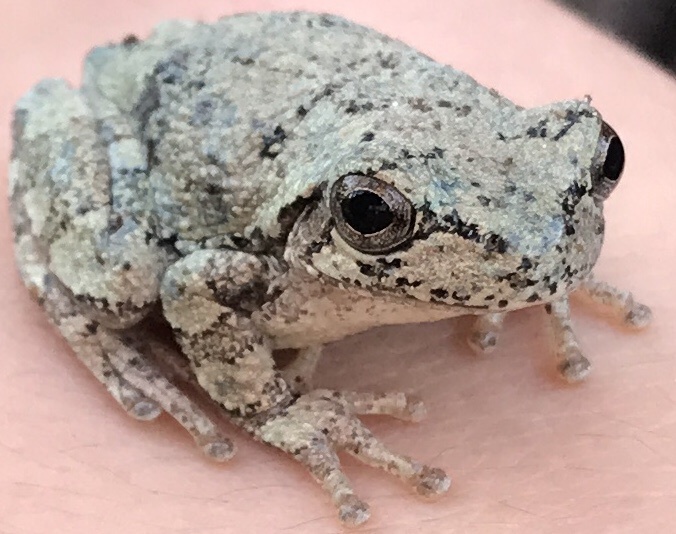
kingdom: Animalia
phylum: Chordata
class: Amphibia
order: Anura
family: Hylidae
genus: Hyla
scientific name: Hyla
